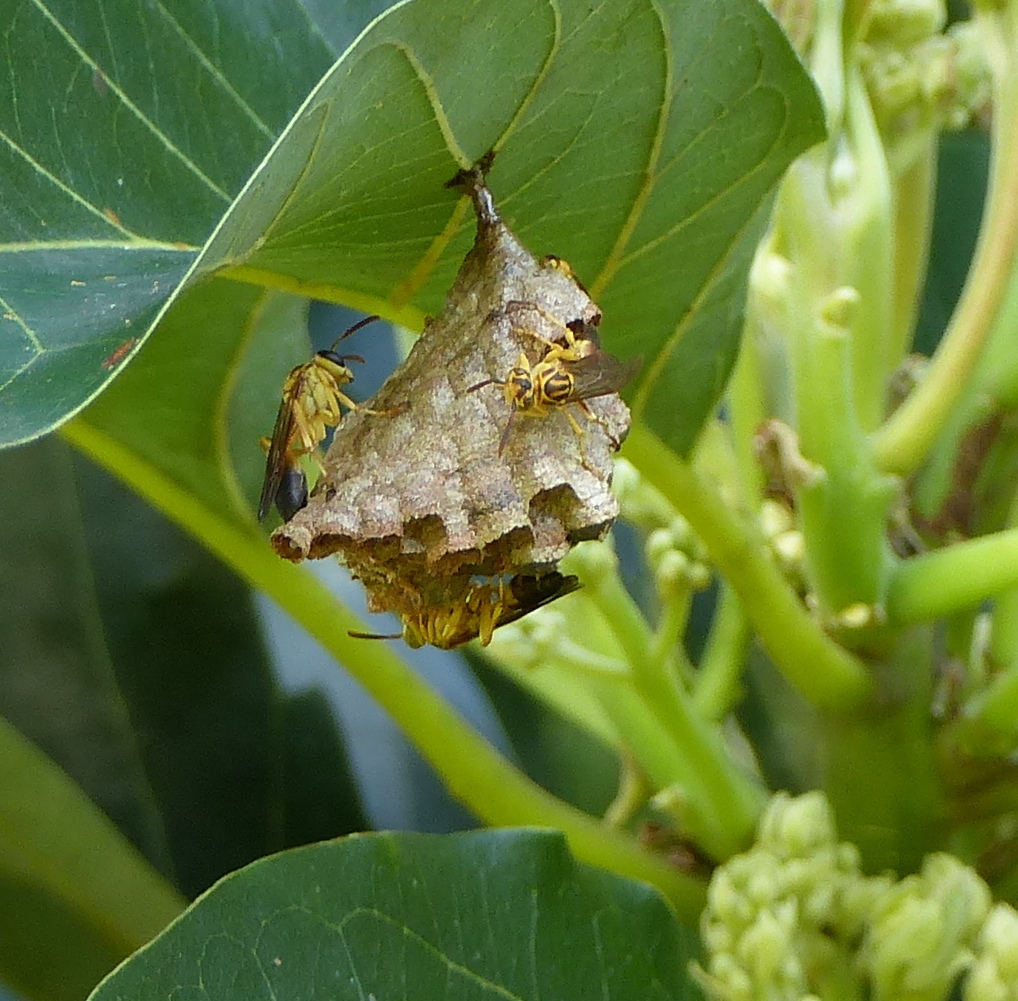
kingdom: Animalia
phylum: Arthropoda
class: Insecta
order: Hymenoptera
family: Vespidae
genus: Mischocyttarus
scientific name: Mischocyttarus cerberus
